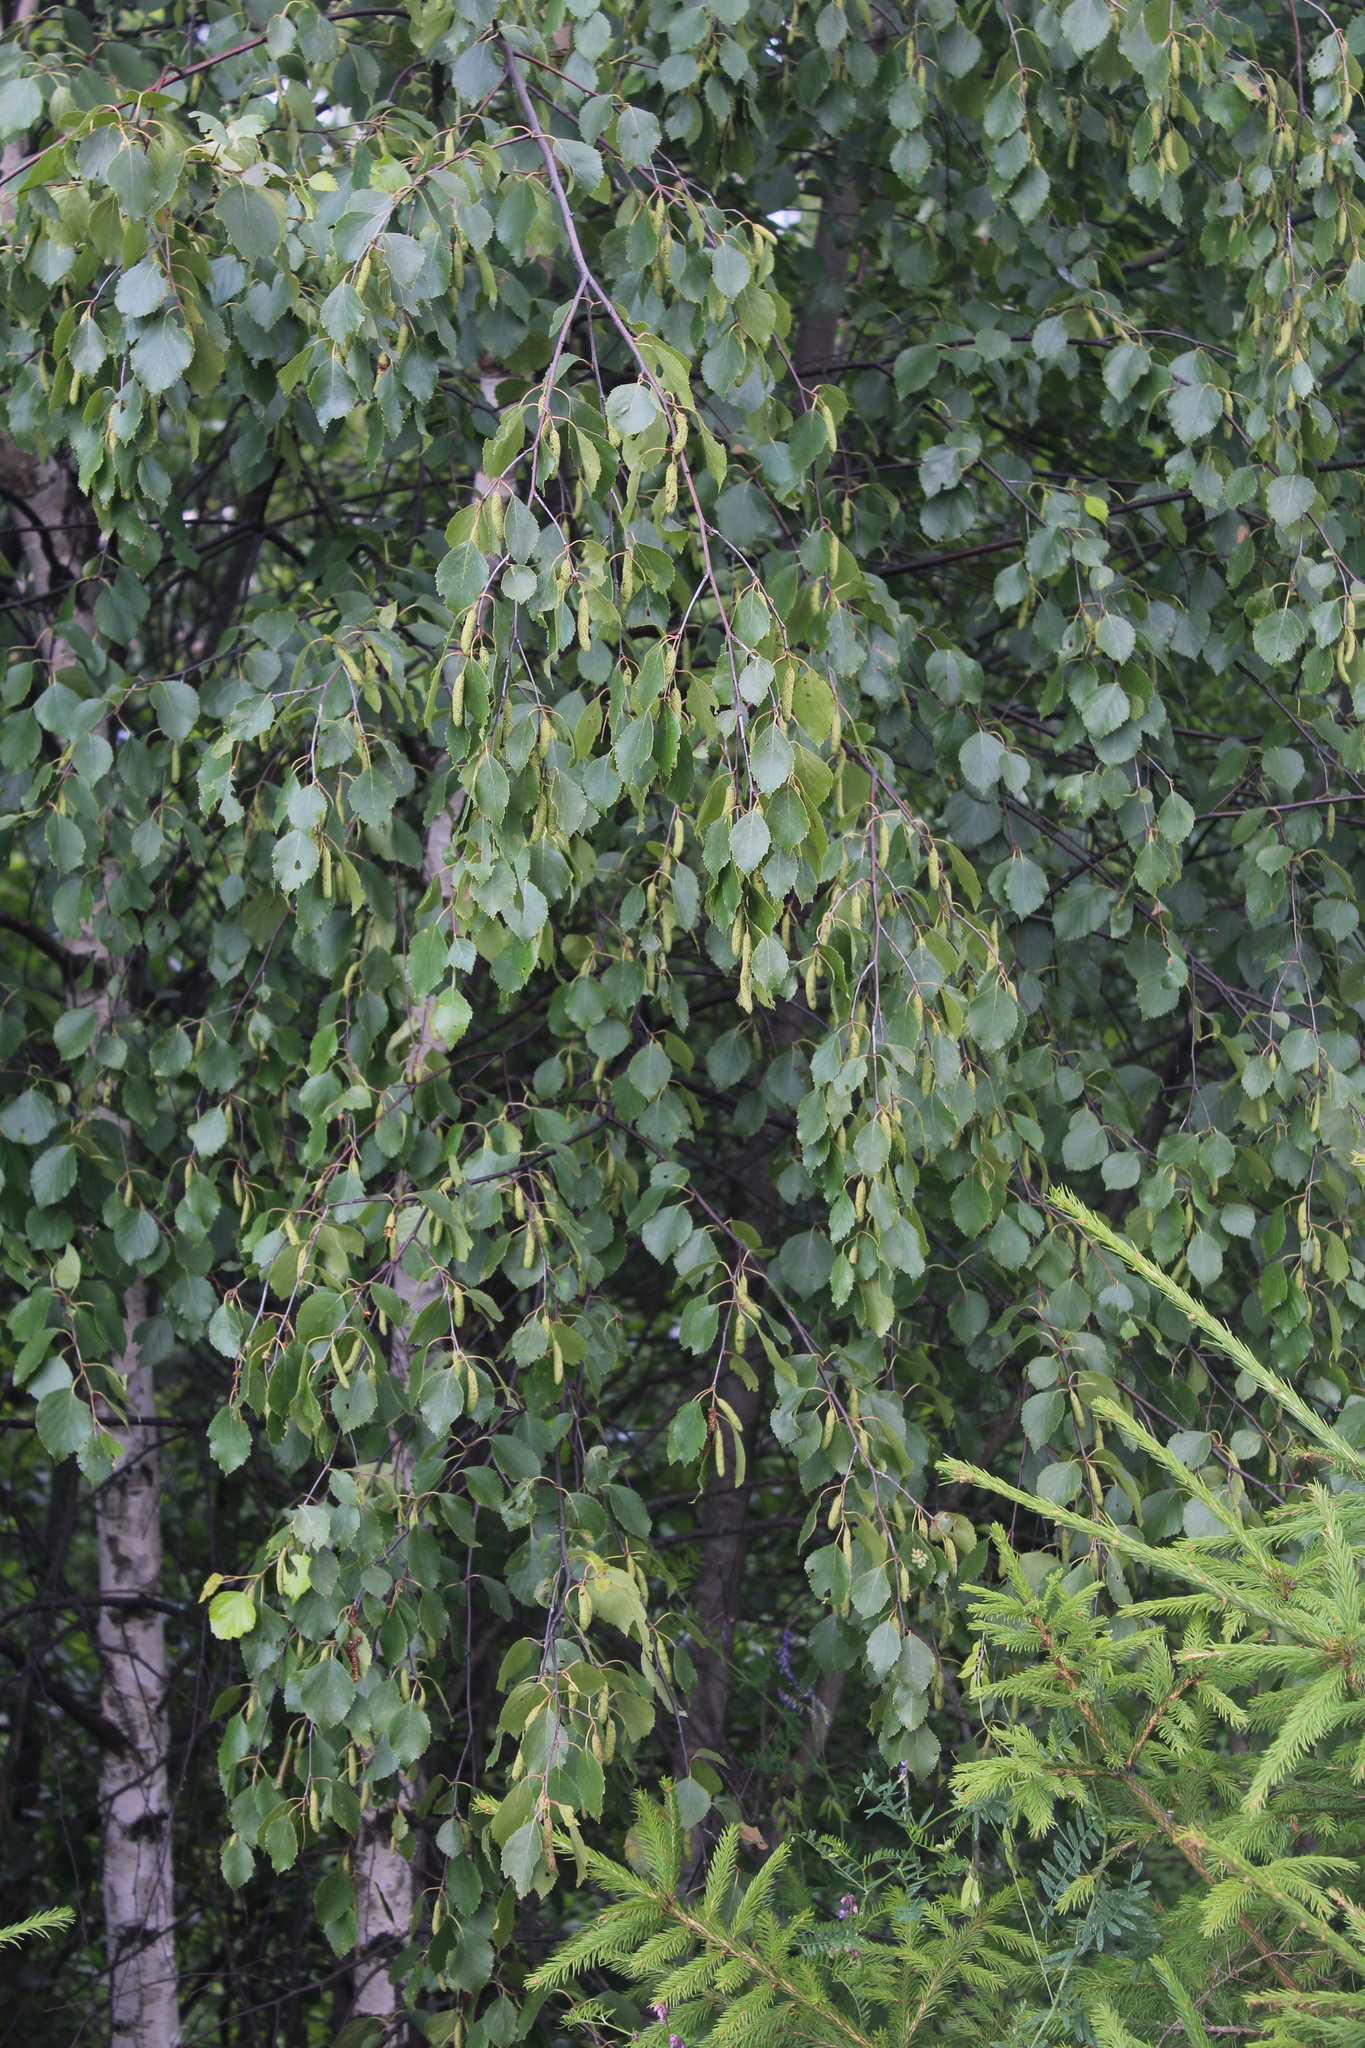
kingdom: Plantae
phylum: Tracheophyta
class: Magnoliopsida
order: Fagales
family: Betulaceae
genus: Betula
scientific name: Betula pendula
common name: Silver birch
